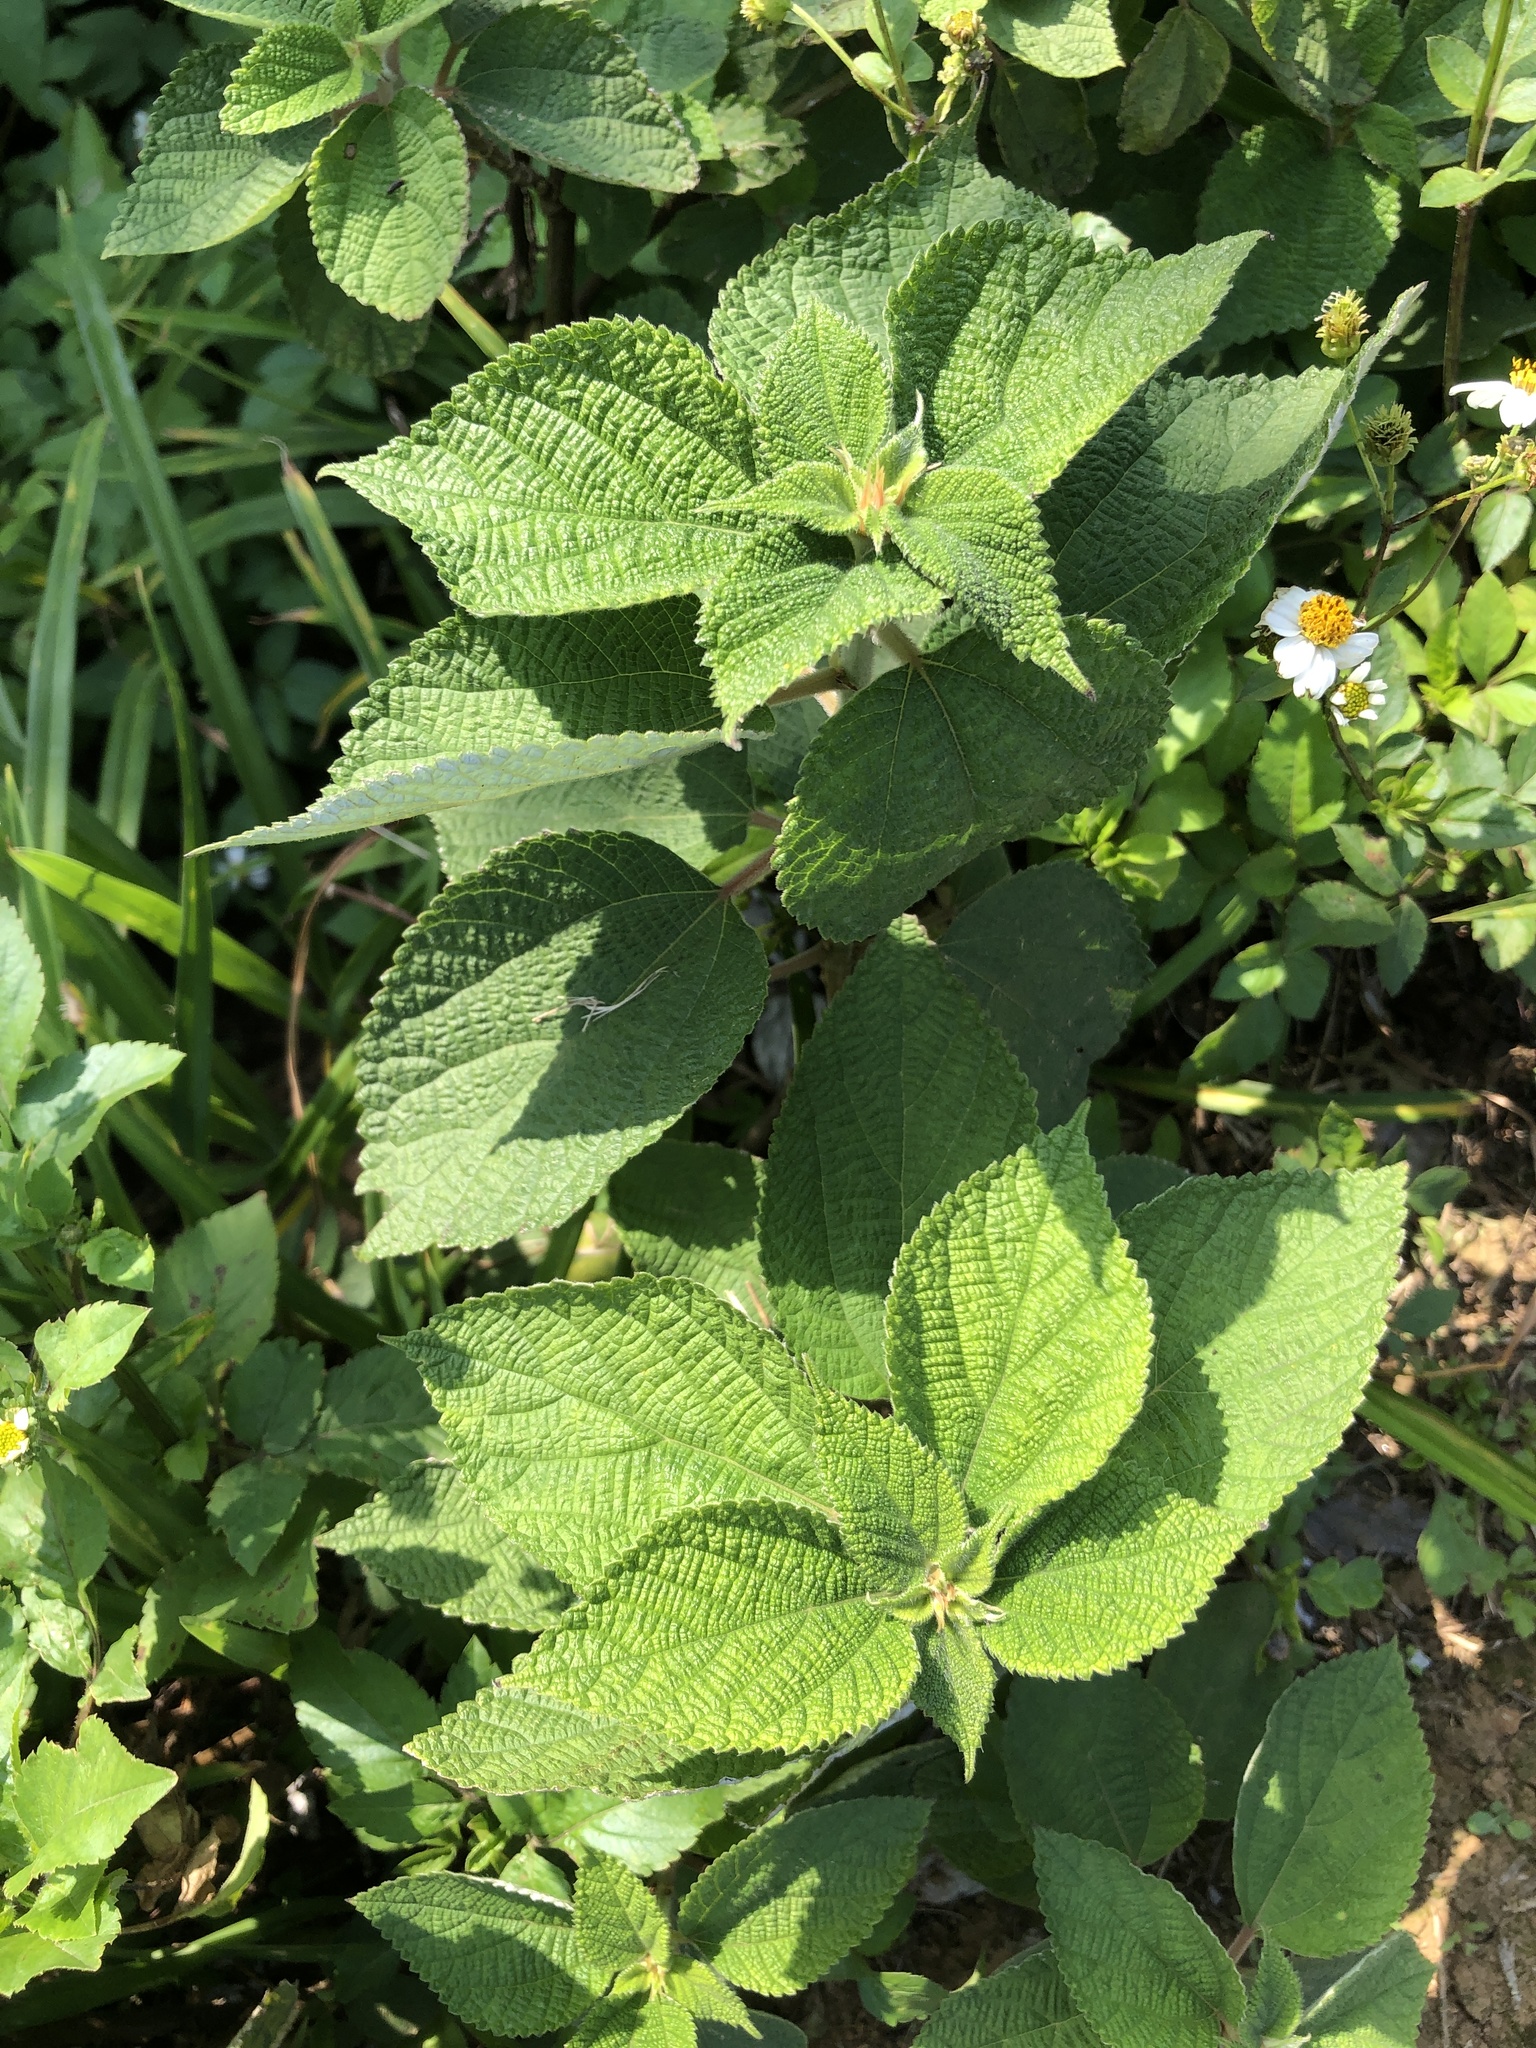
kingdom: Plantae
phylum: Tracheophyta
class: Magnoliopsida
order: Rosales
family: Urticaceae
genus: Boehmeria
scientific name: Boehmeria nivea
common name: Ramie chinese grass
